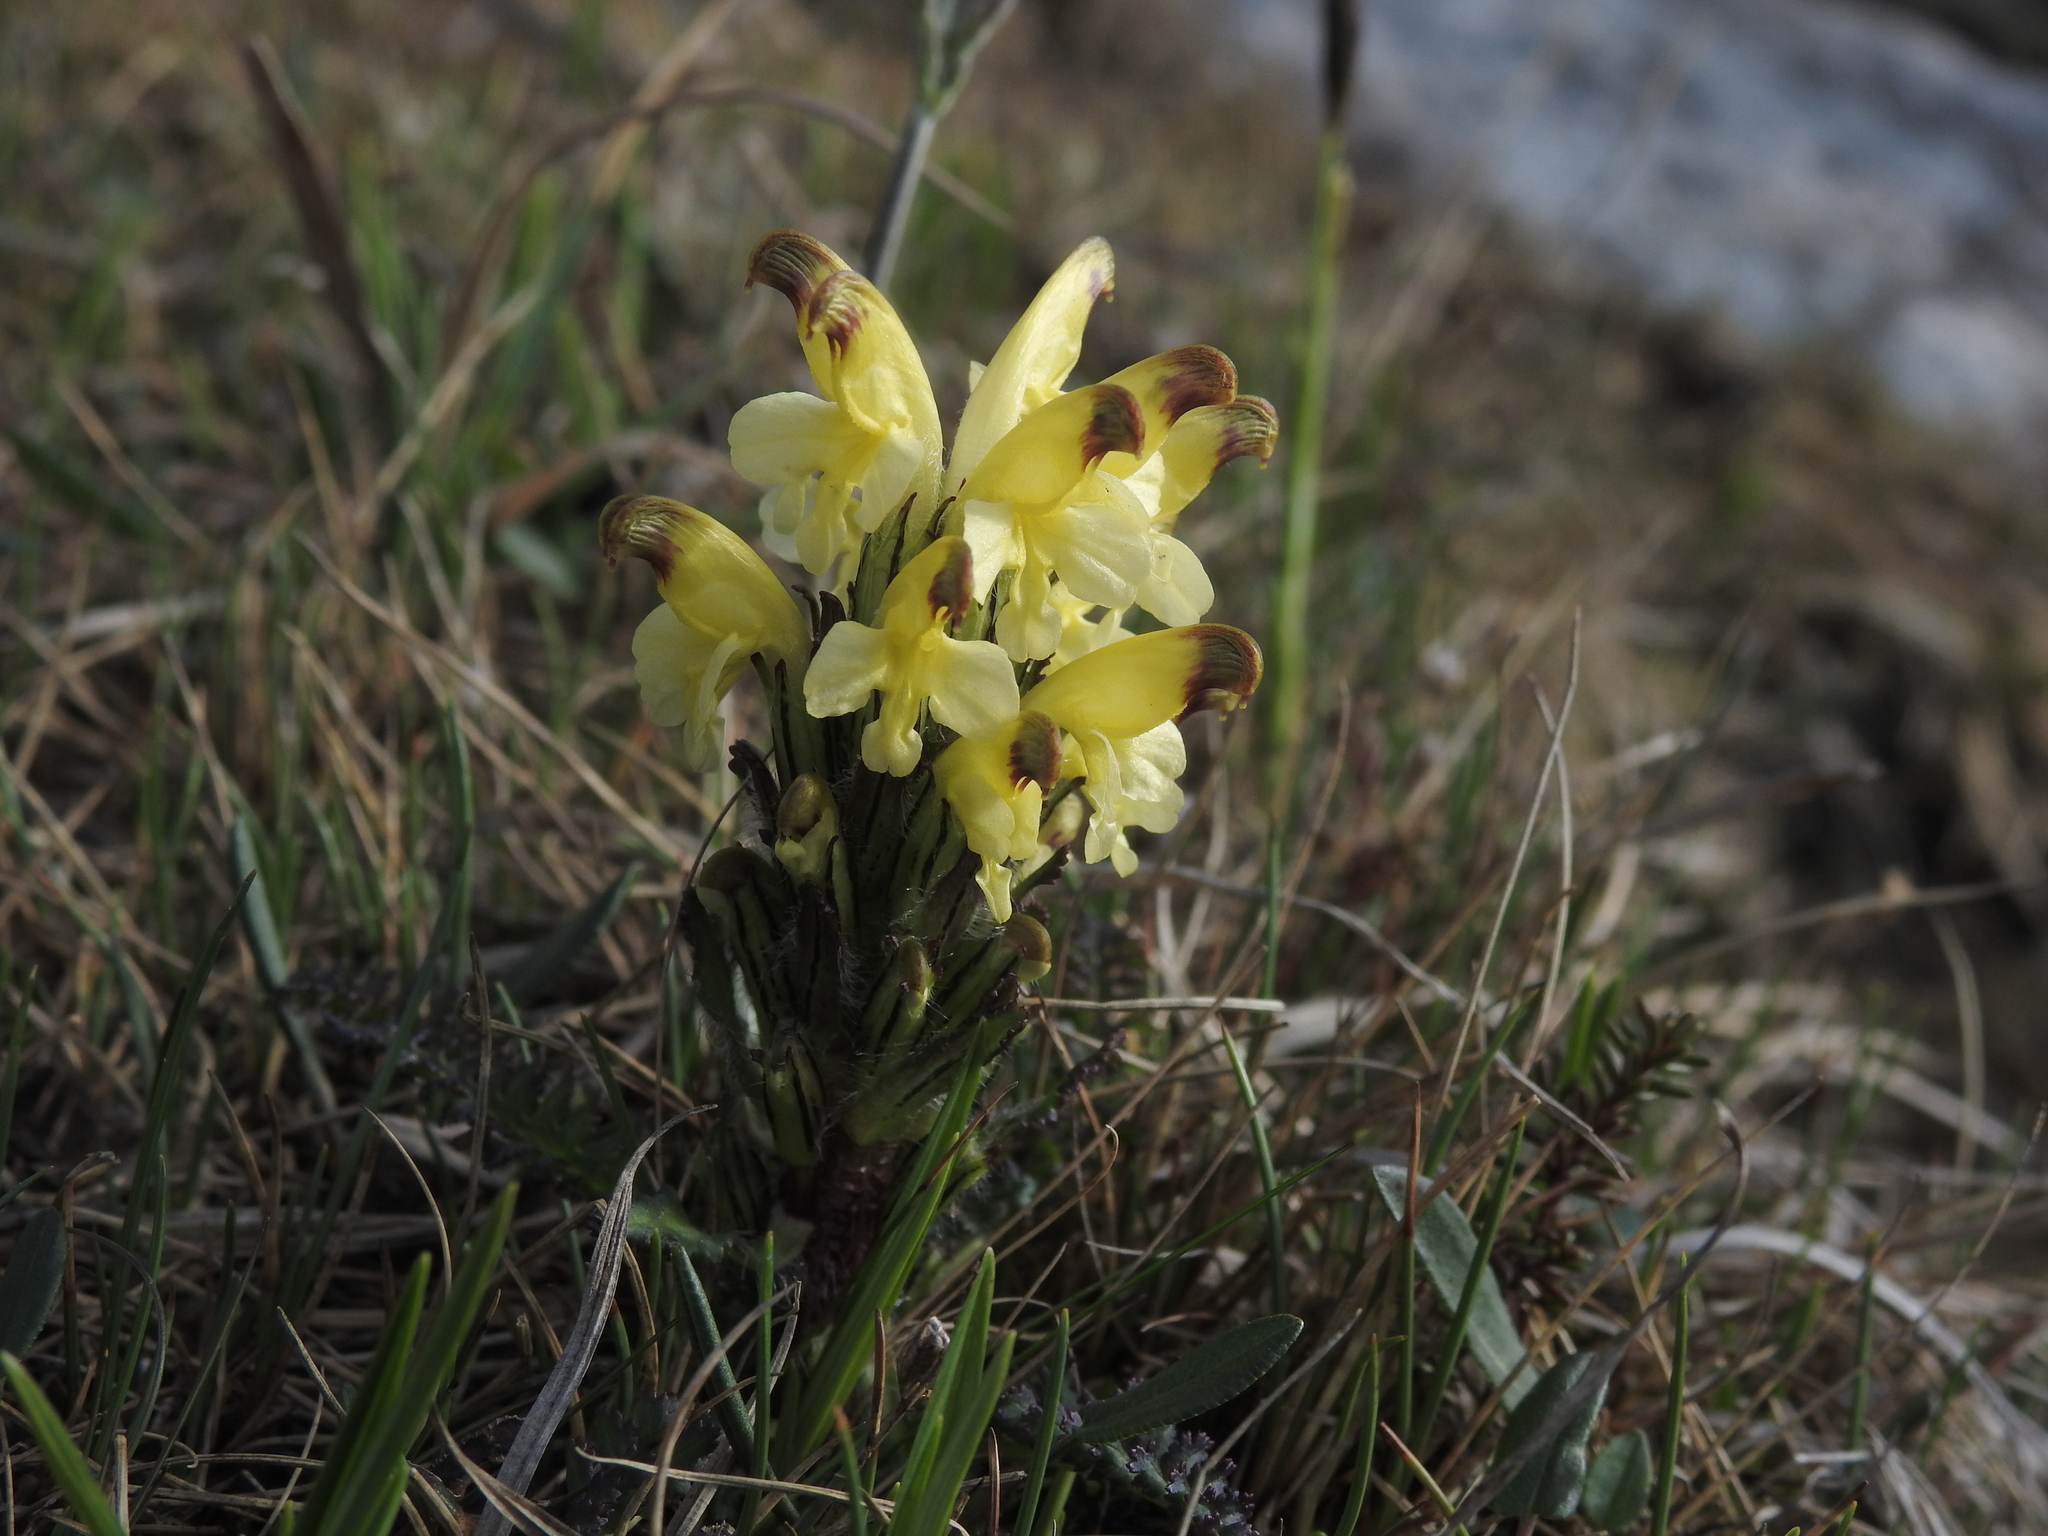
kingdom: Plantae
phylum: Tracheophyta
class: Magnoliopsida
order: Lamiales
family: Orobanchaceae
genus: Pedicularis
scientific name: Pedicularis oederi
